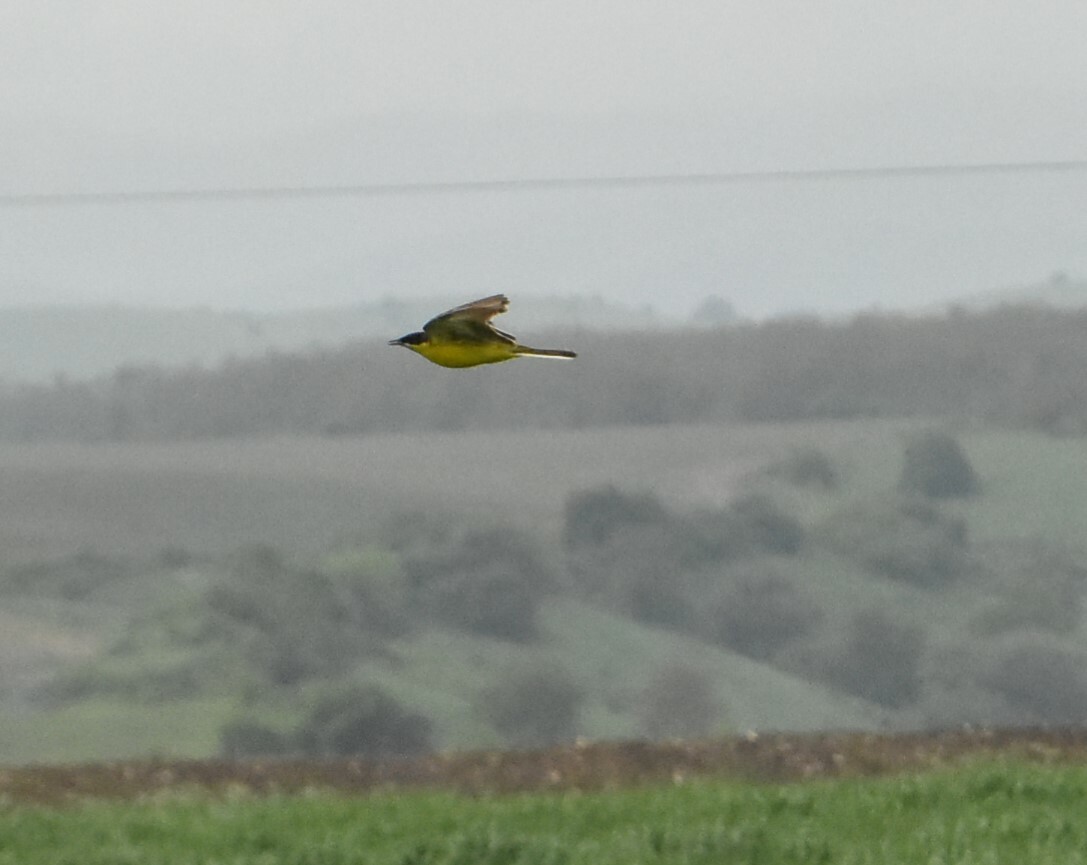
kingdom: Animalia
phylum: Chordata
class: Aves
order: Passeriformes
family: Motacillidae
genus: Motacilla
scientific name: Motacilla flava
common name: Western yellow wagtail
